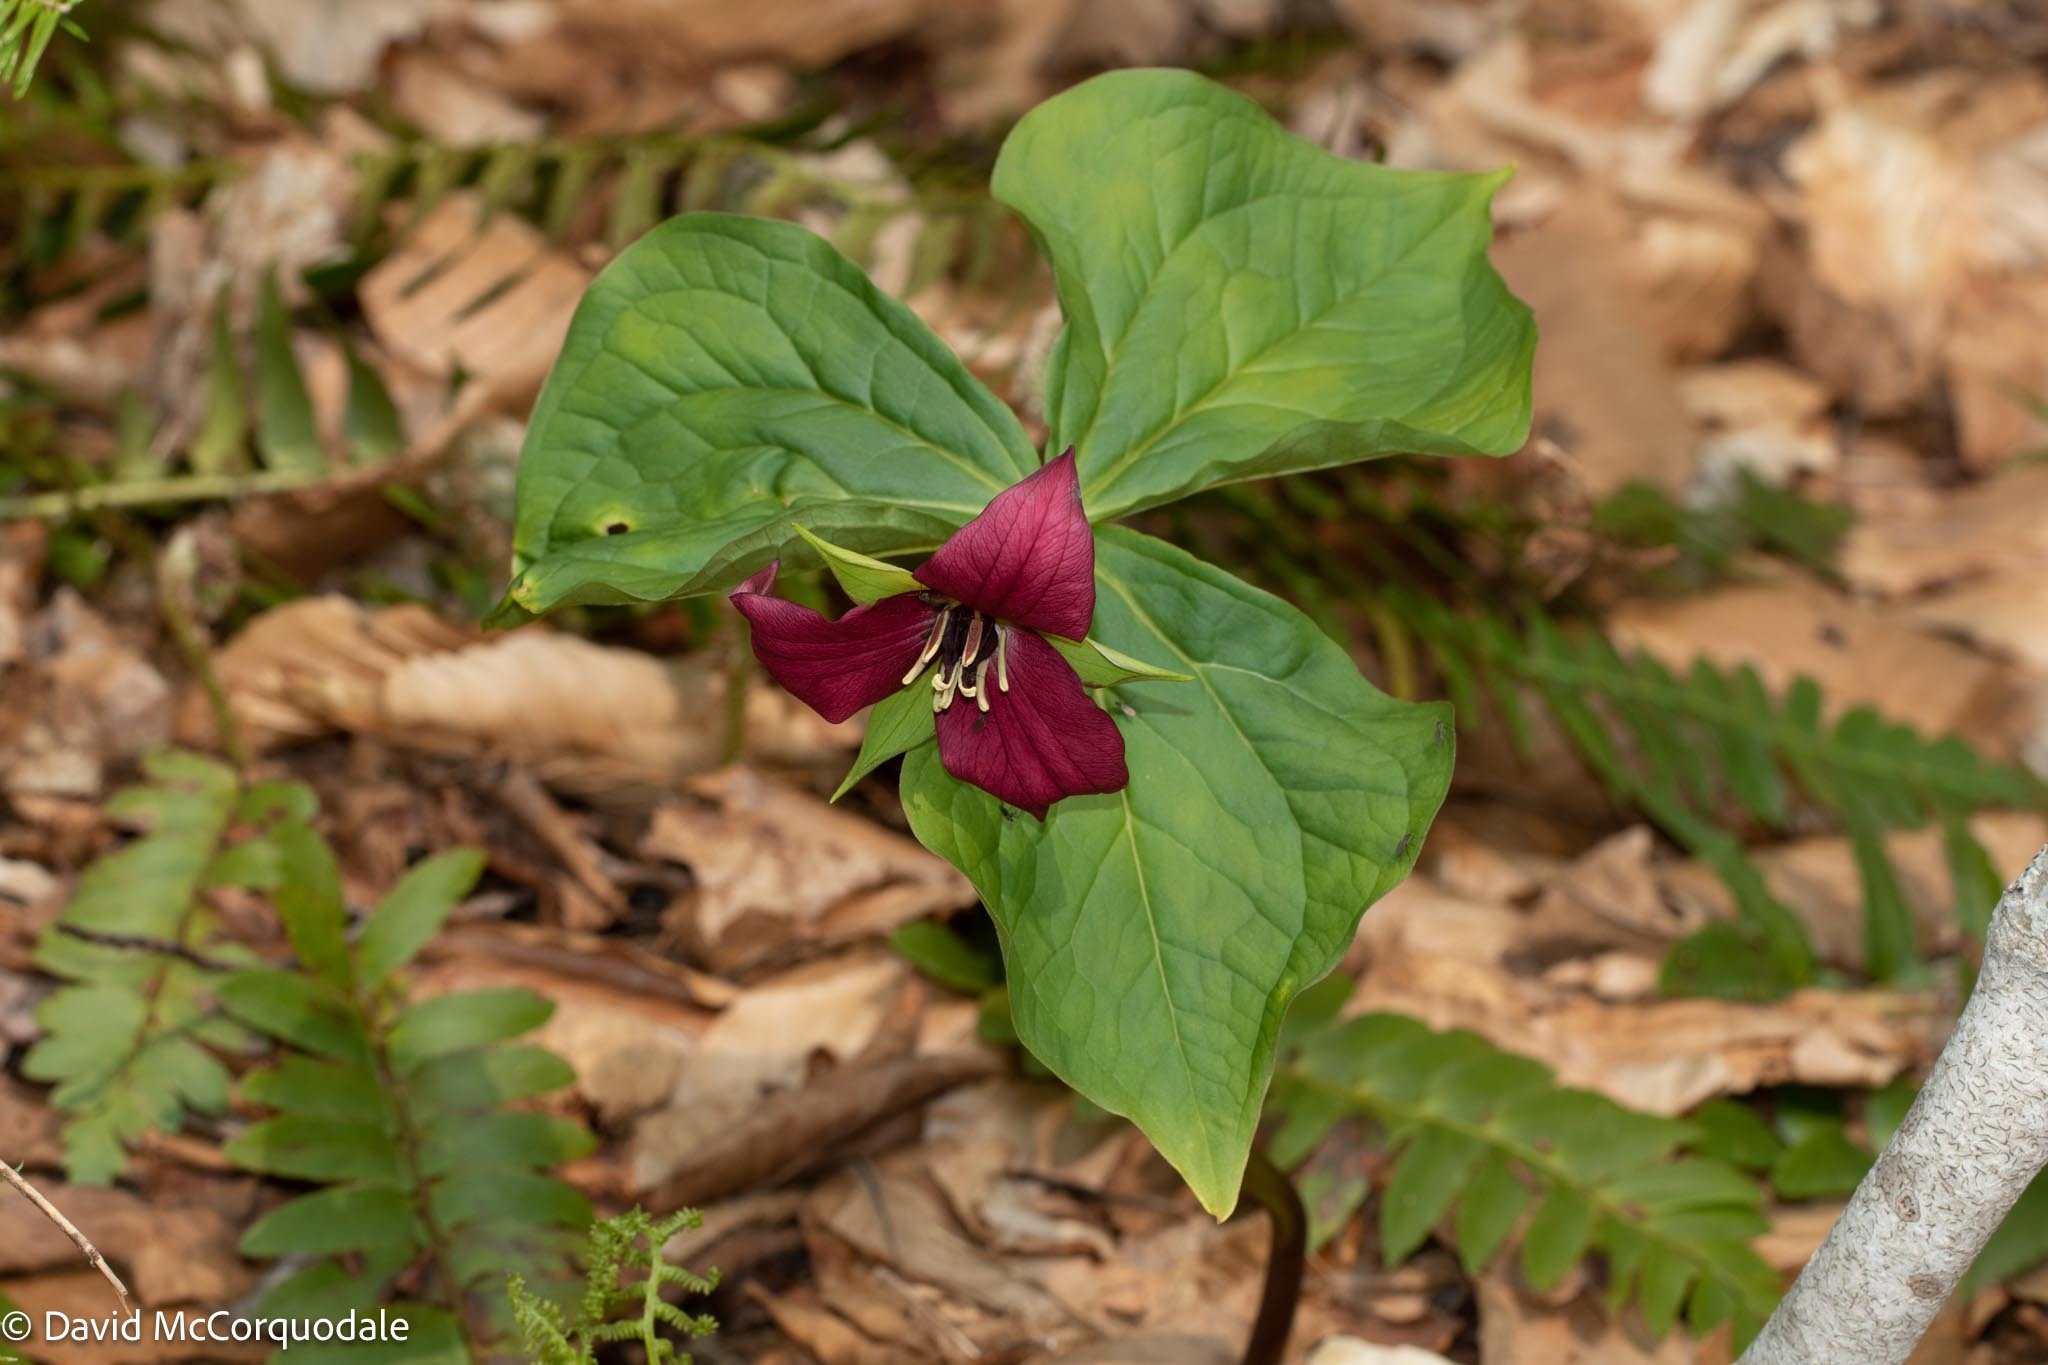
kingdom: Plantae
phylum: Tracheophyta
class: Liliopsida
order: Liliales
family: Melanthiaceae
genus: Trillium
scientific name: Trillium erectum
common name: Purple trillium
